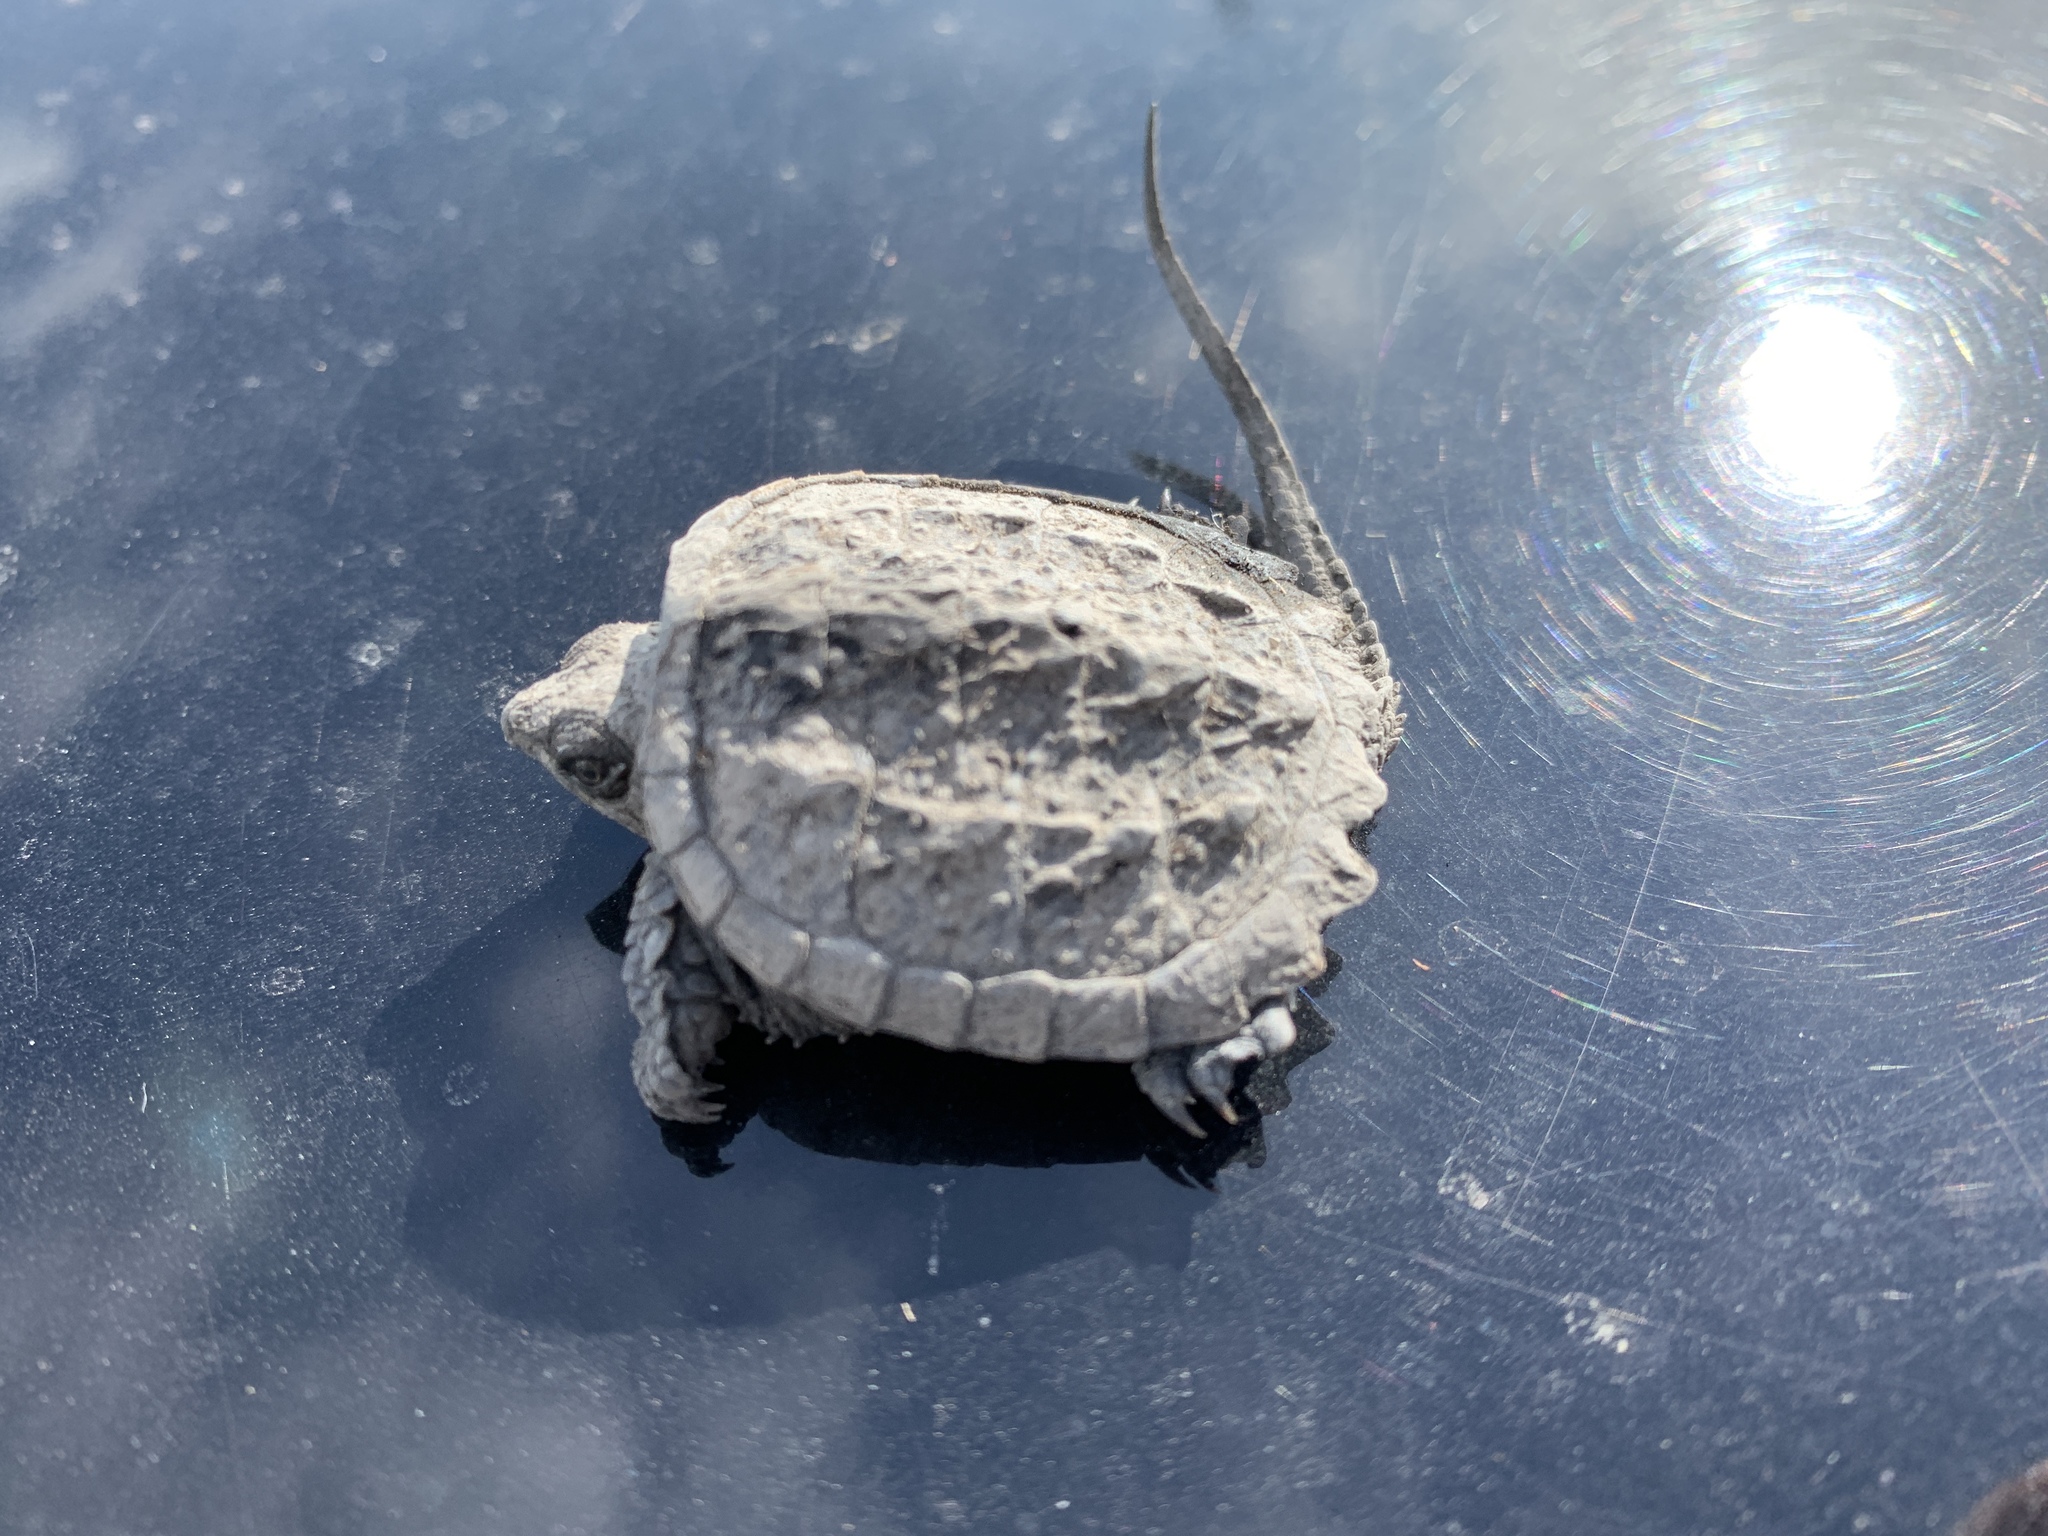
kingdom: Animalia
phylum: Chordata
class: Testudines
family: Chelydridae
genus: Chelydra
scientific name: Chelydra serpentina
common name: Common snapping turtle
